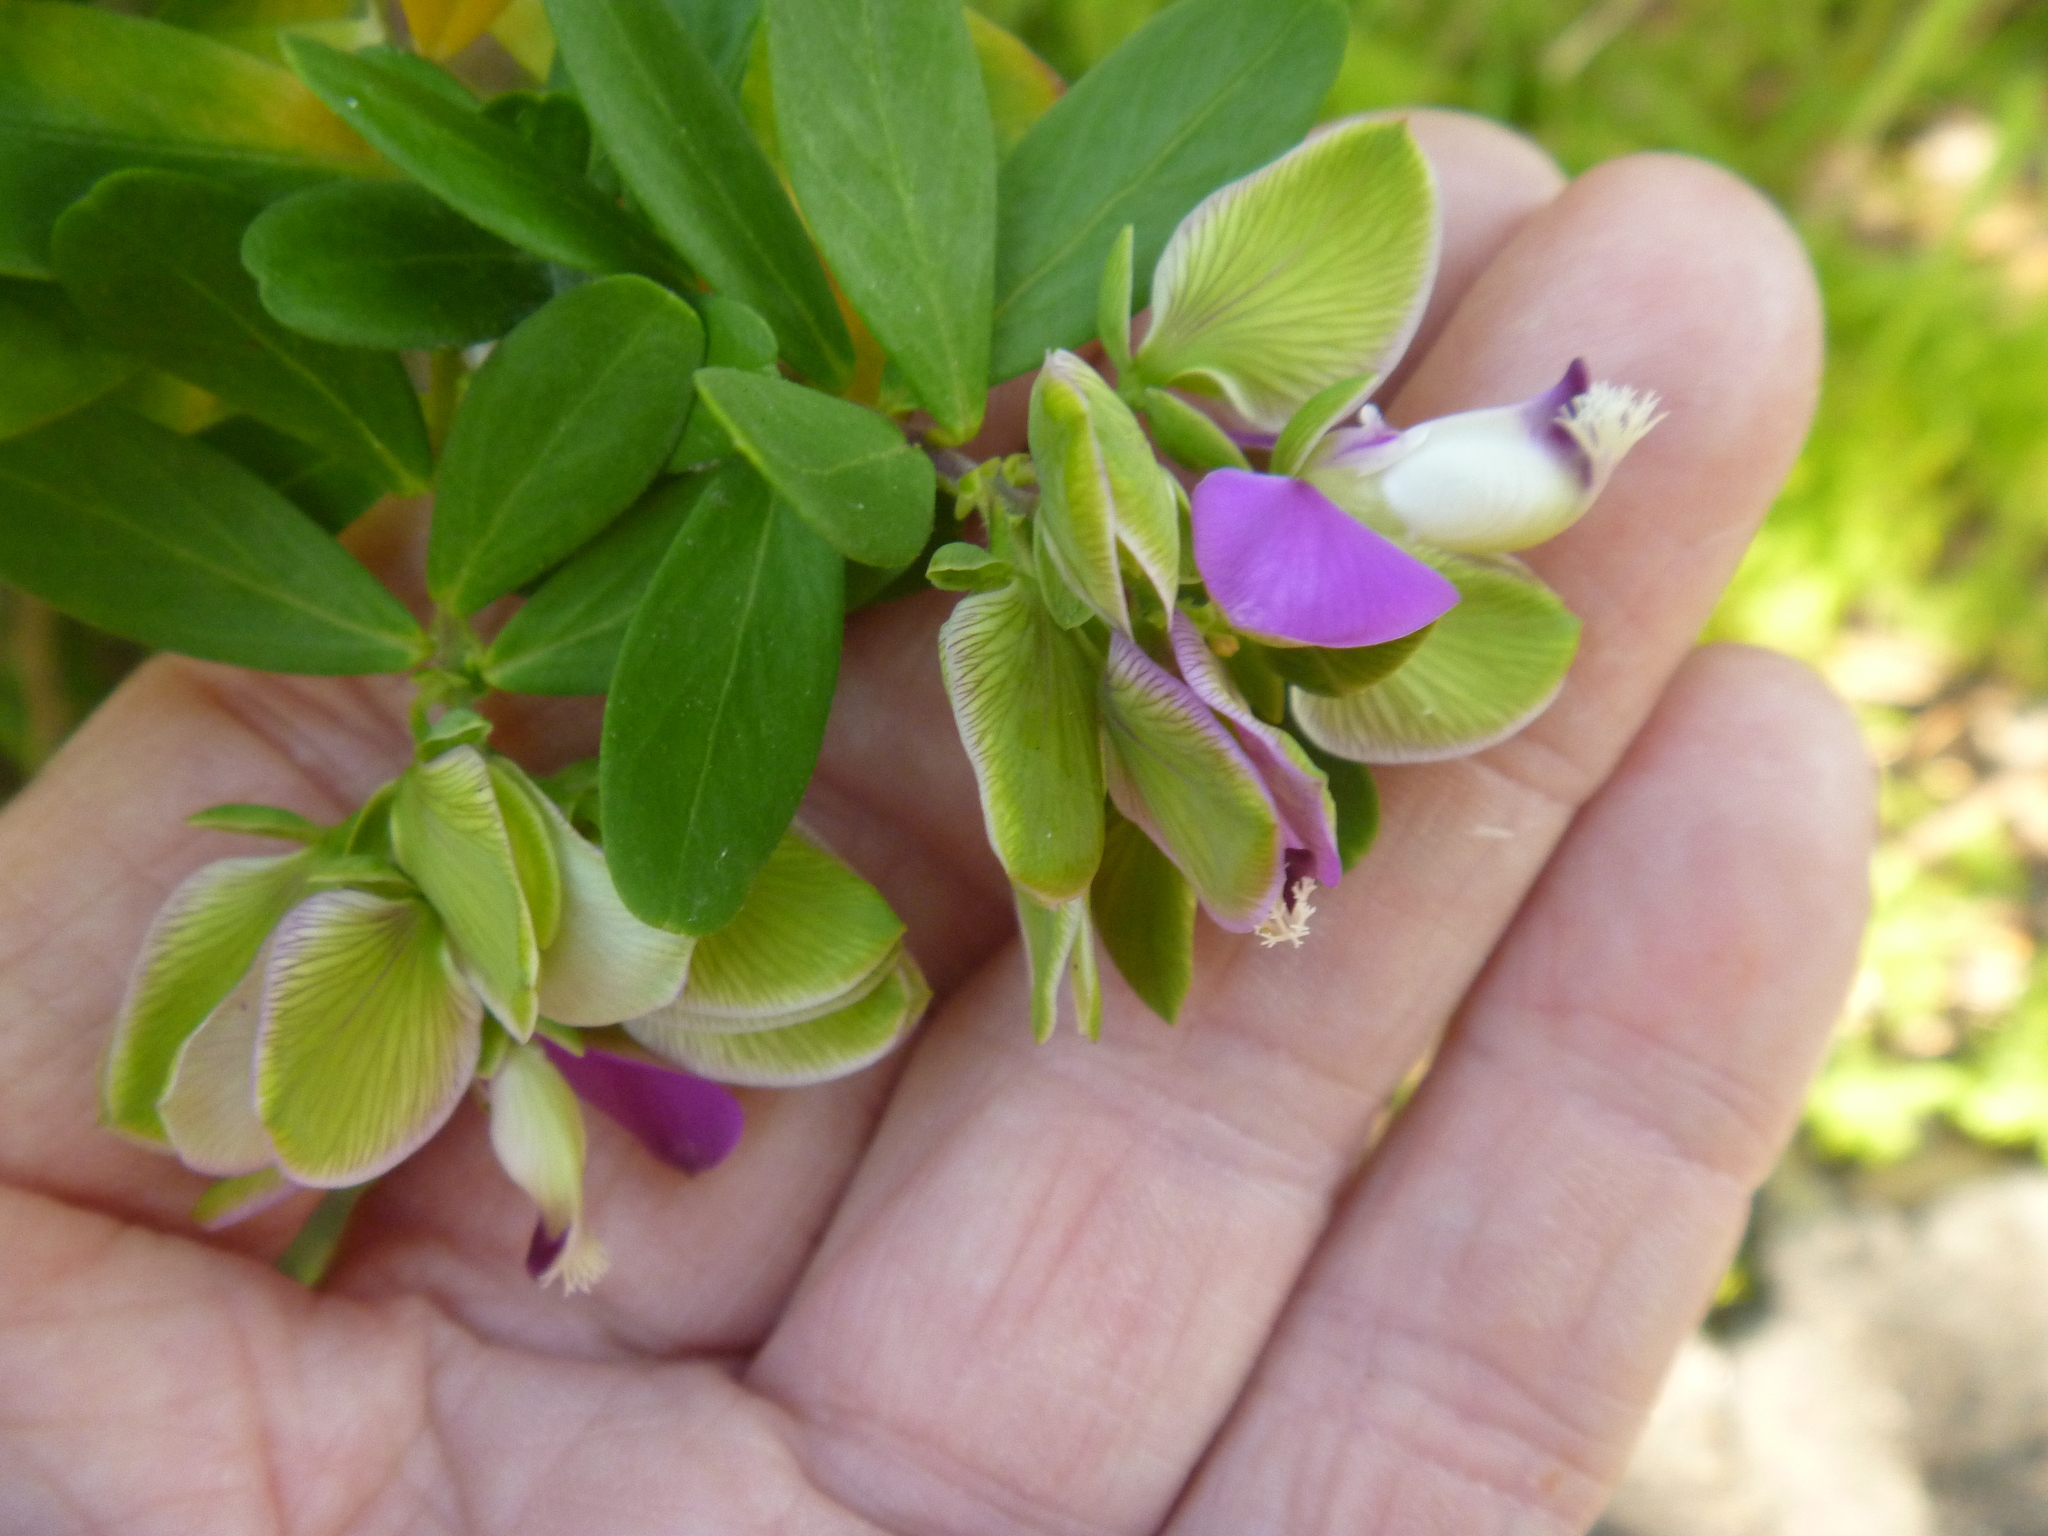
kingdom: Plantae
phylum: Tracheophyta
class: Magnoliopsida
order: Fabales
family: Polygalaceae
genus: Polygala
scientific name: Polygala myrtifolia
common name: Myrtle-leaf milkwort
